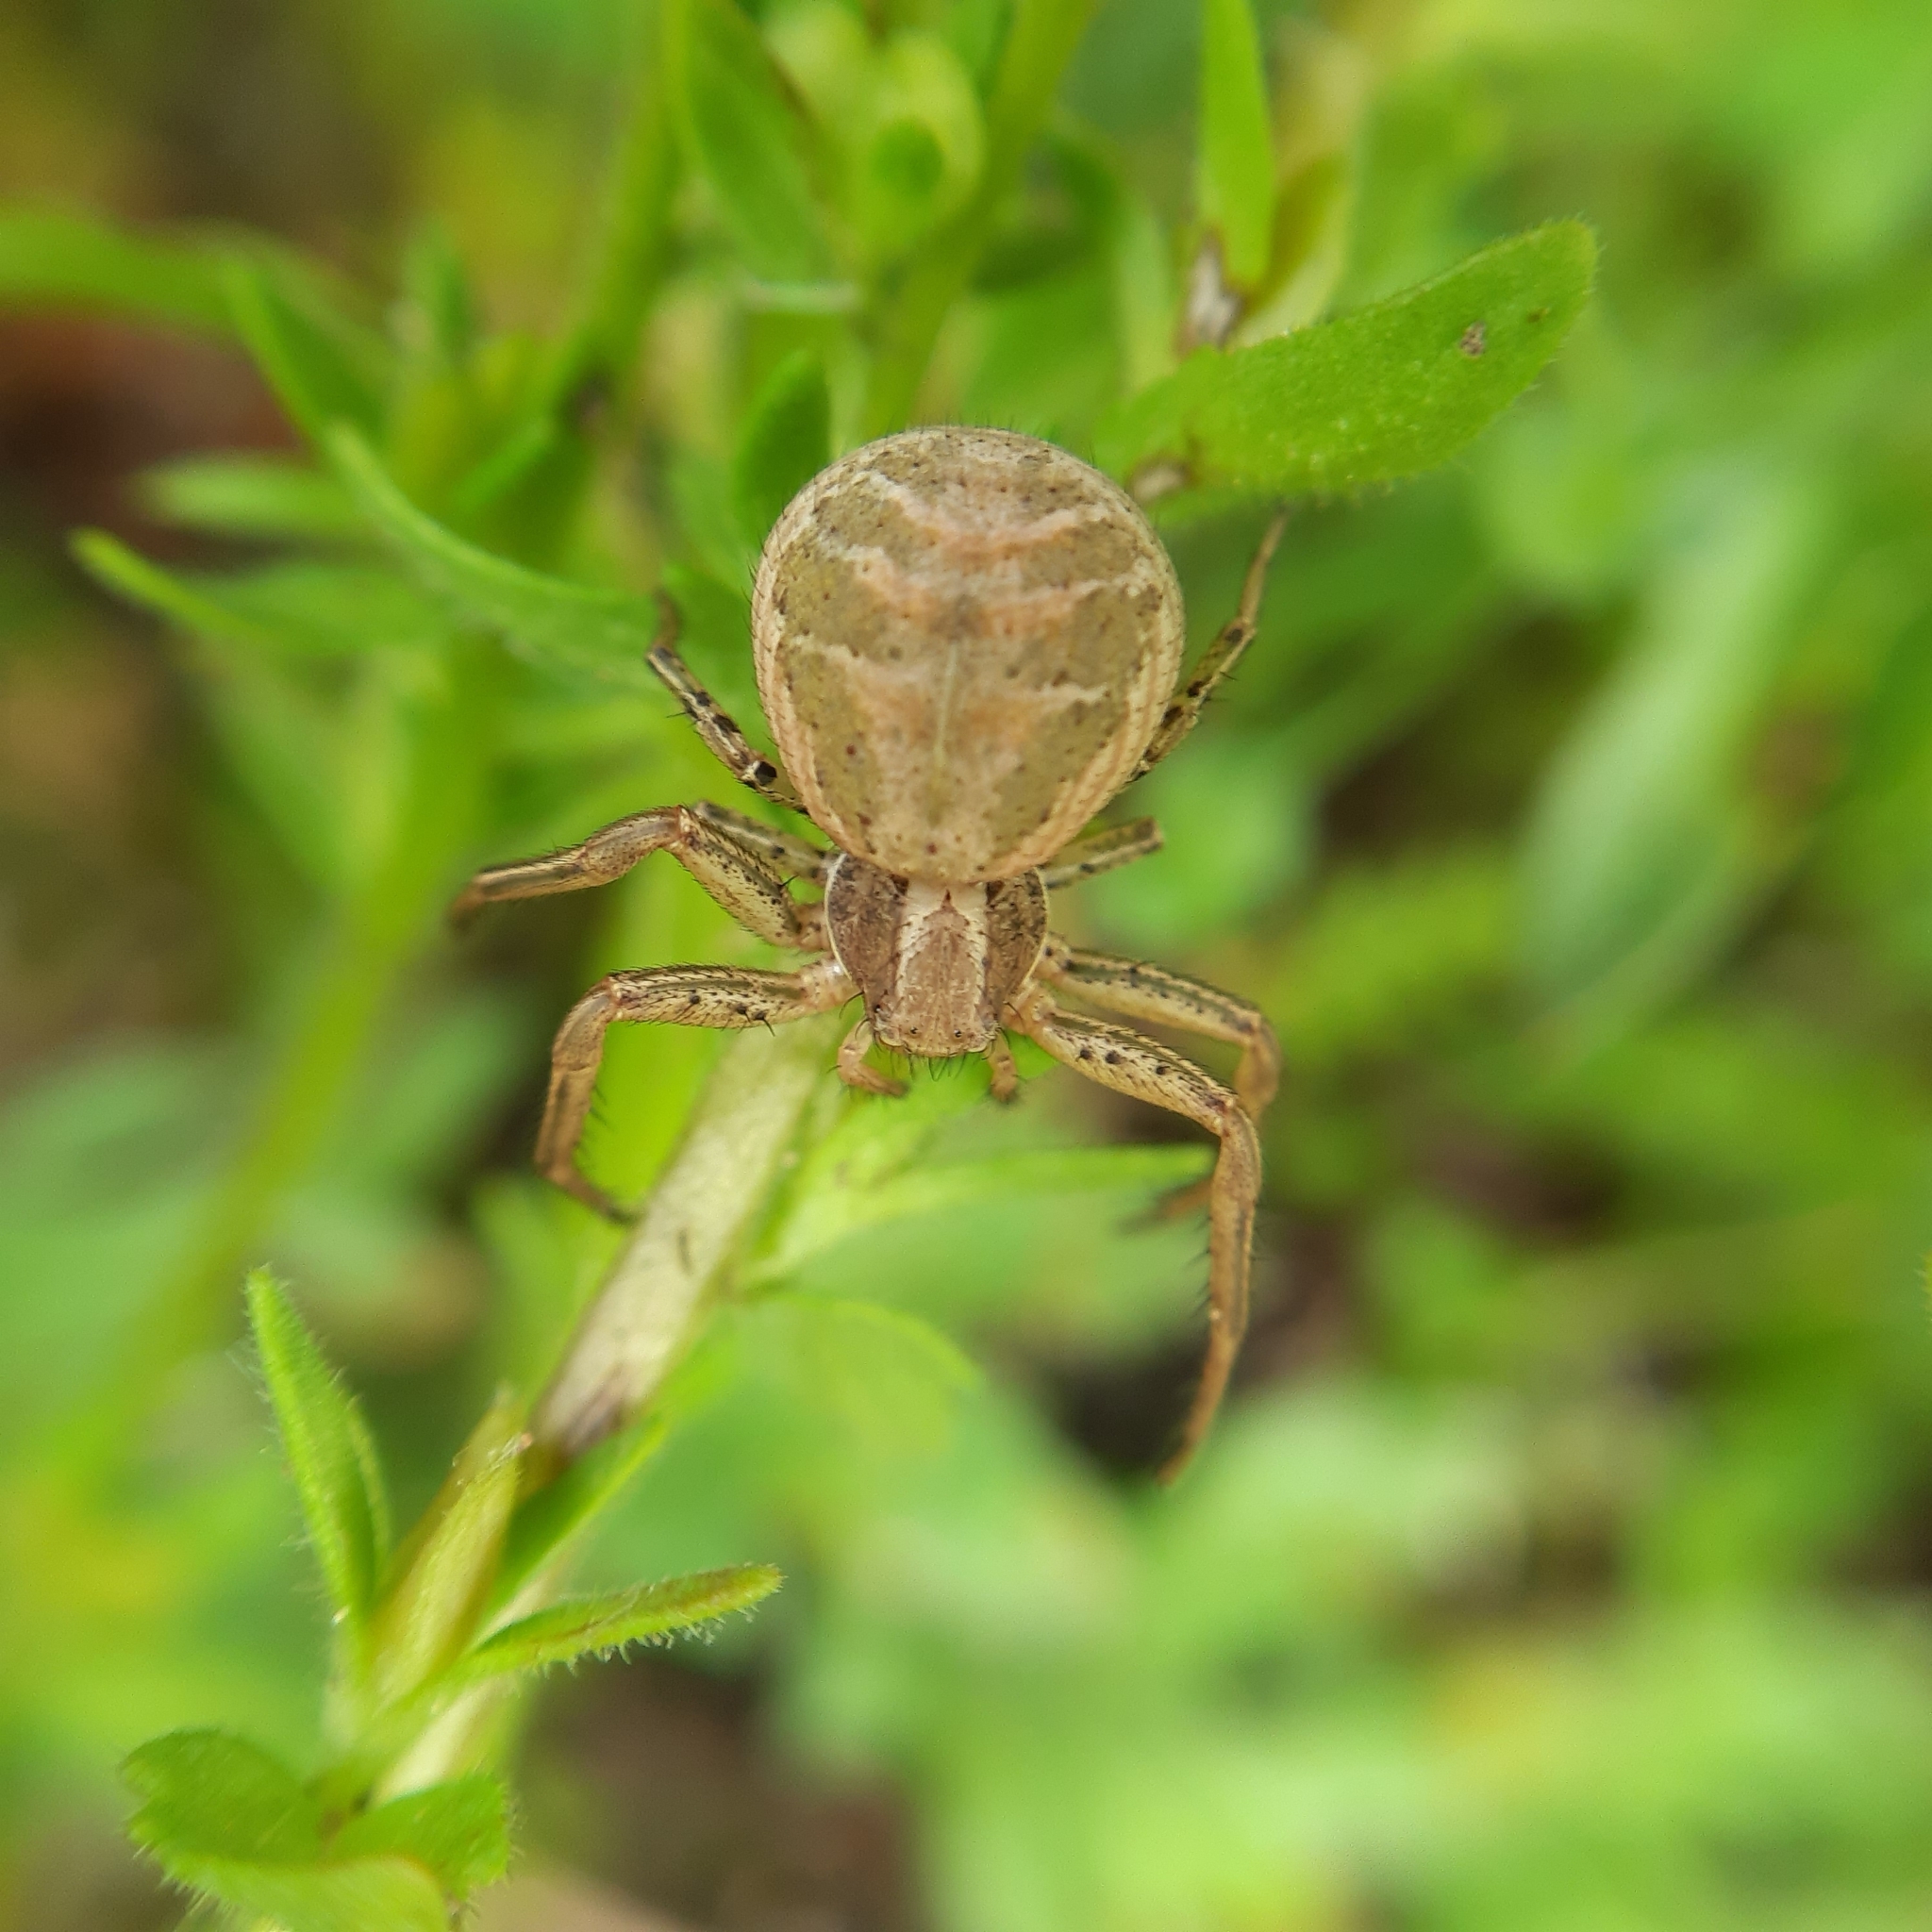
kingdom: Animalia
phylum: Arthropoda
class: Arachnida
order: Araneae
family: Thomisidae
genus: Xysticus
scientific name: Xysticus
